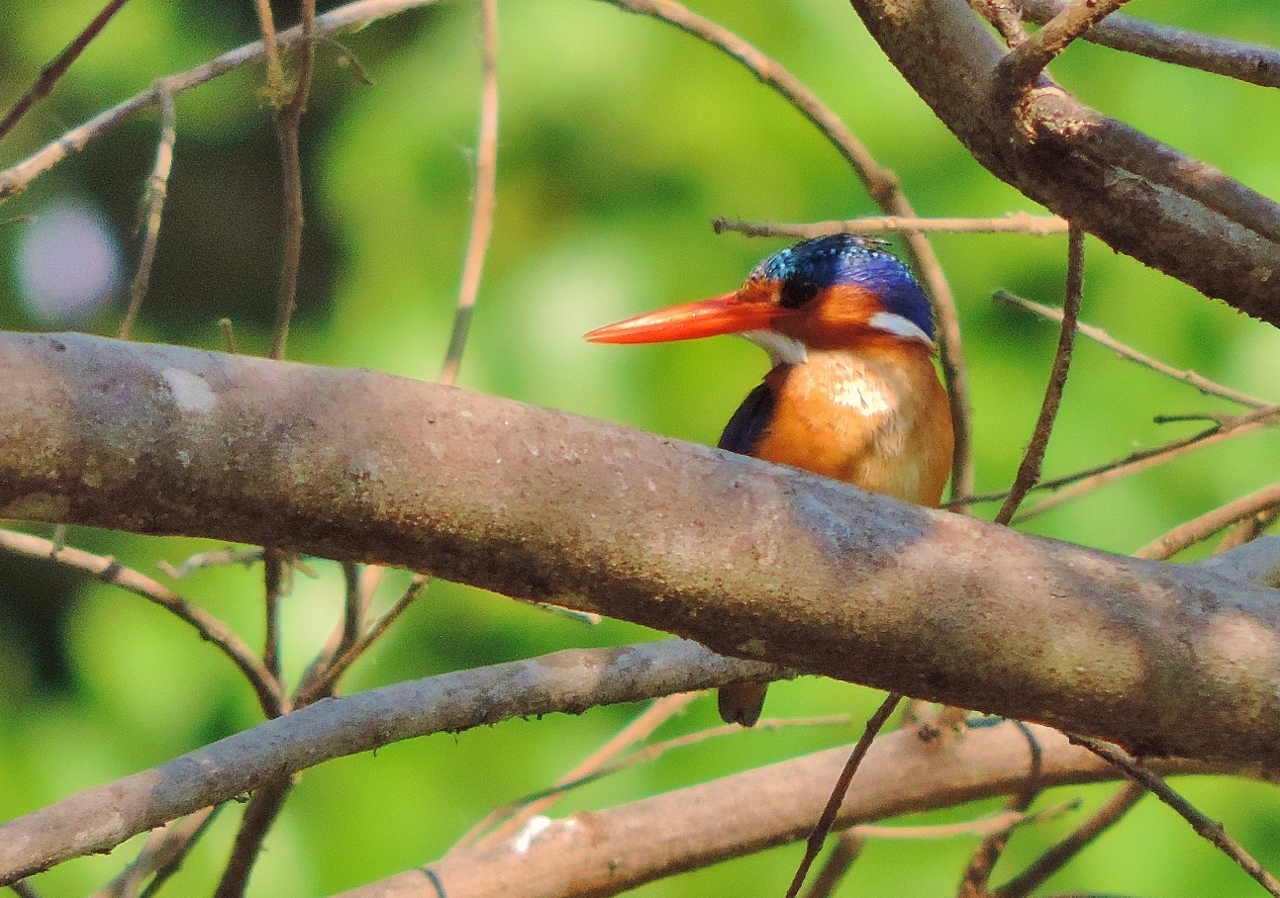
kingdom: Animalia
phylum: Chordata
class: Aves
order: Coraciiformes
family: Alcedinidae
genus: Corythornis
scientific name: Corythornis cristatus
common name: Malachite kingfisher
